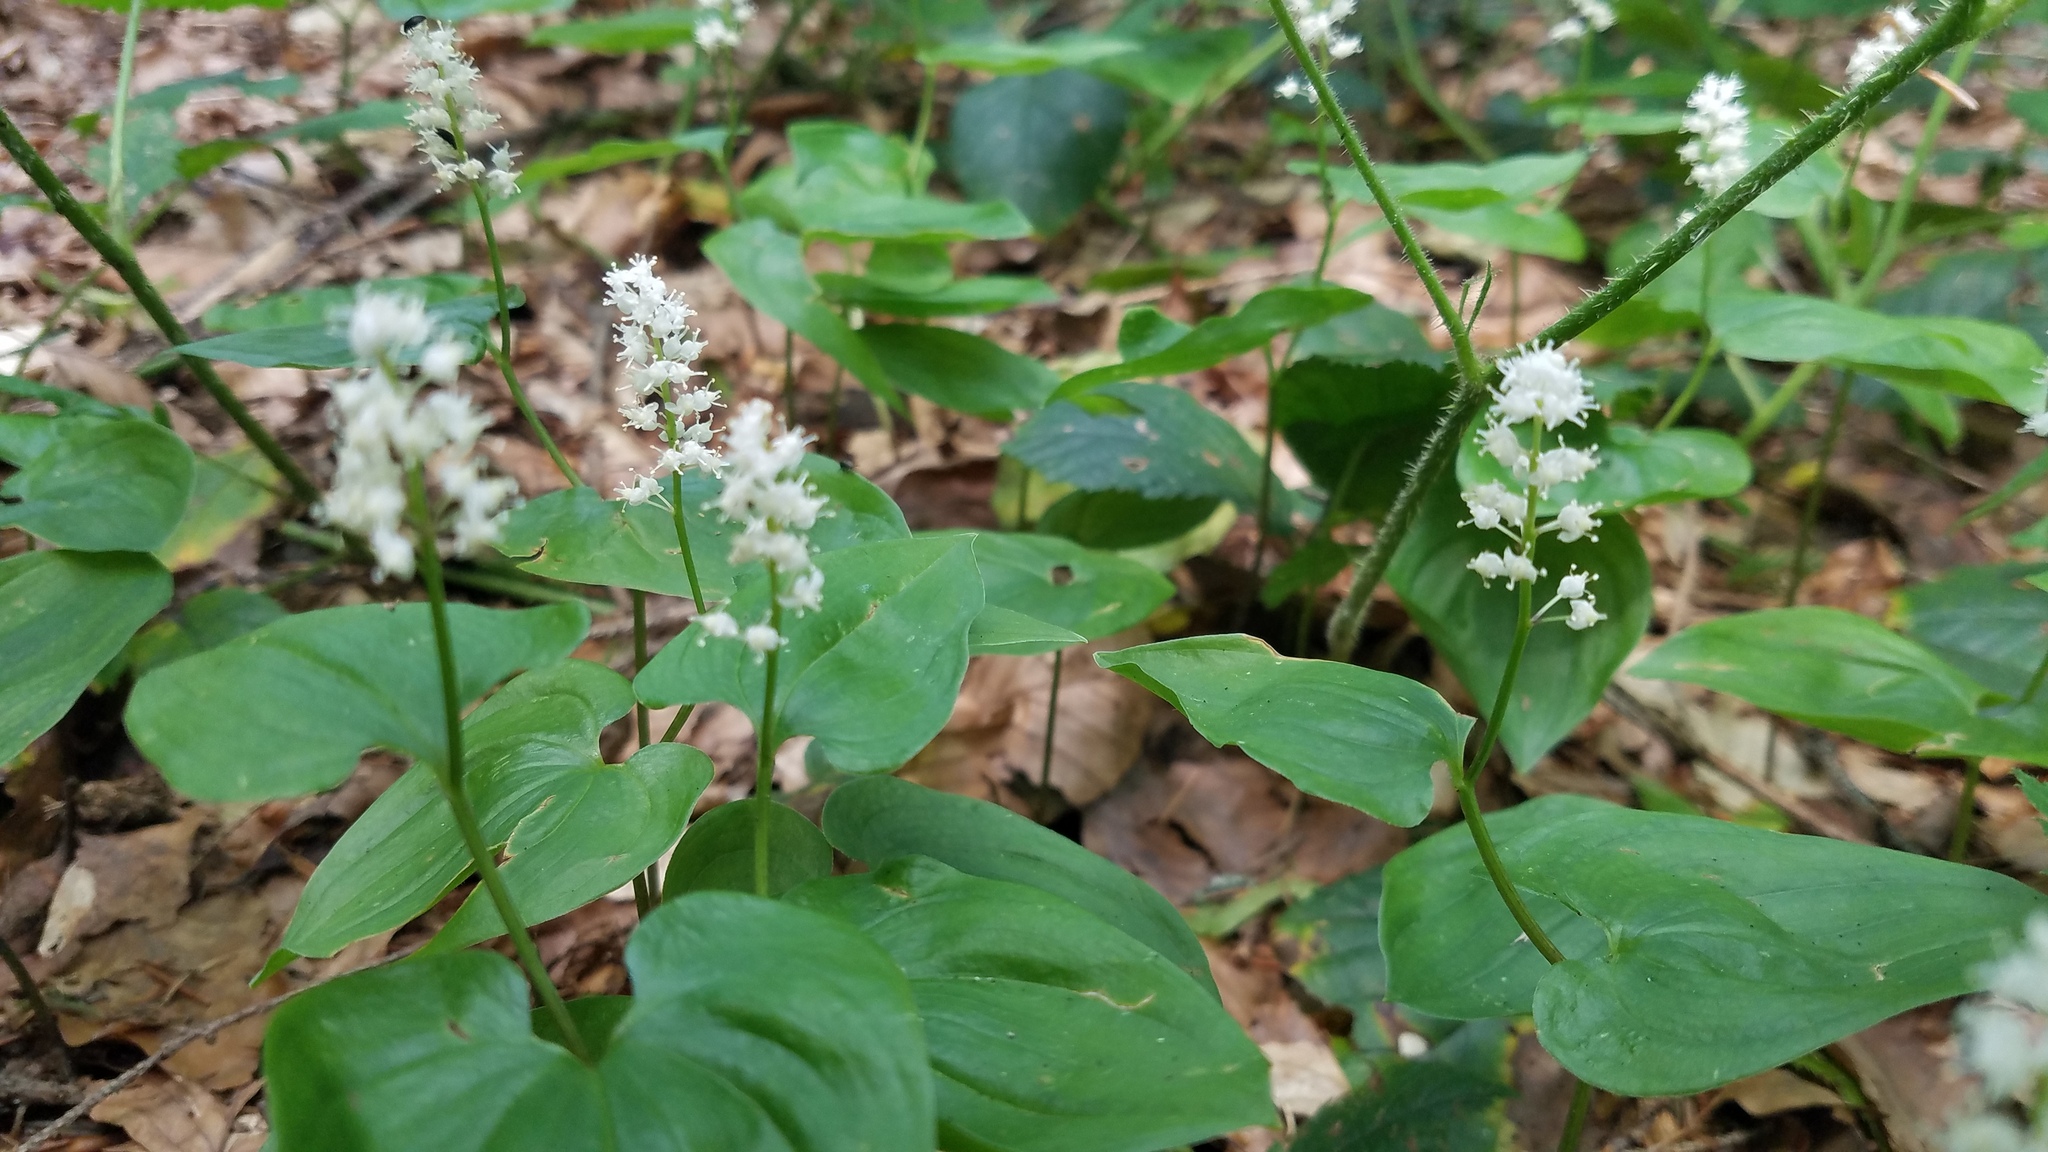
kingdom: Plantae
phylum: Tracheophyta
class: Liliopsida
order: Asparagales
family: Asparagaceae
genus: Maianthemum
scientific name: Maianthemum bifolium
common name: May lily
